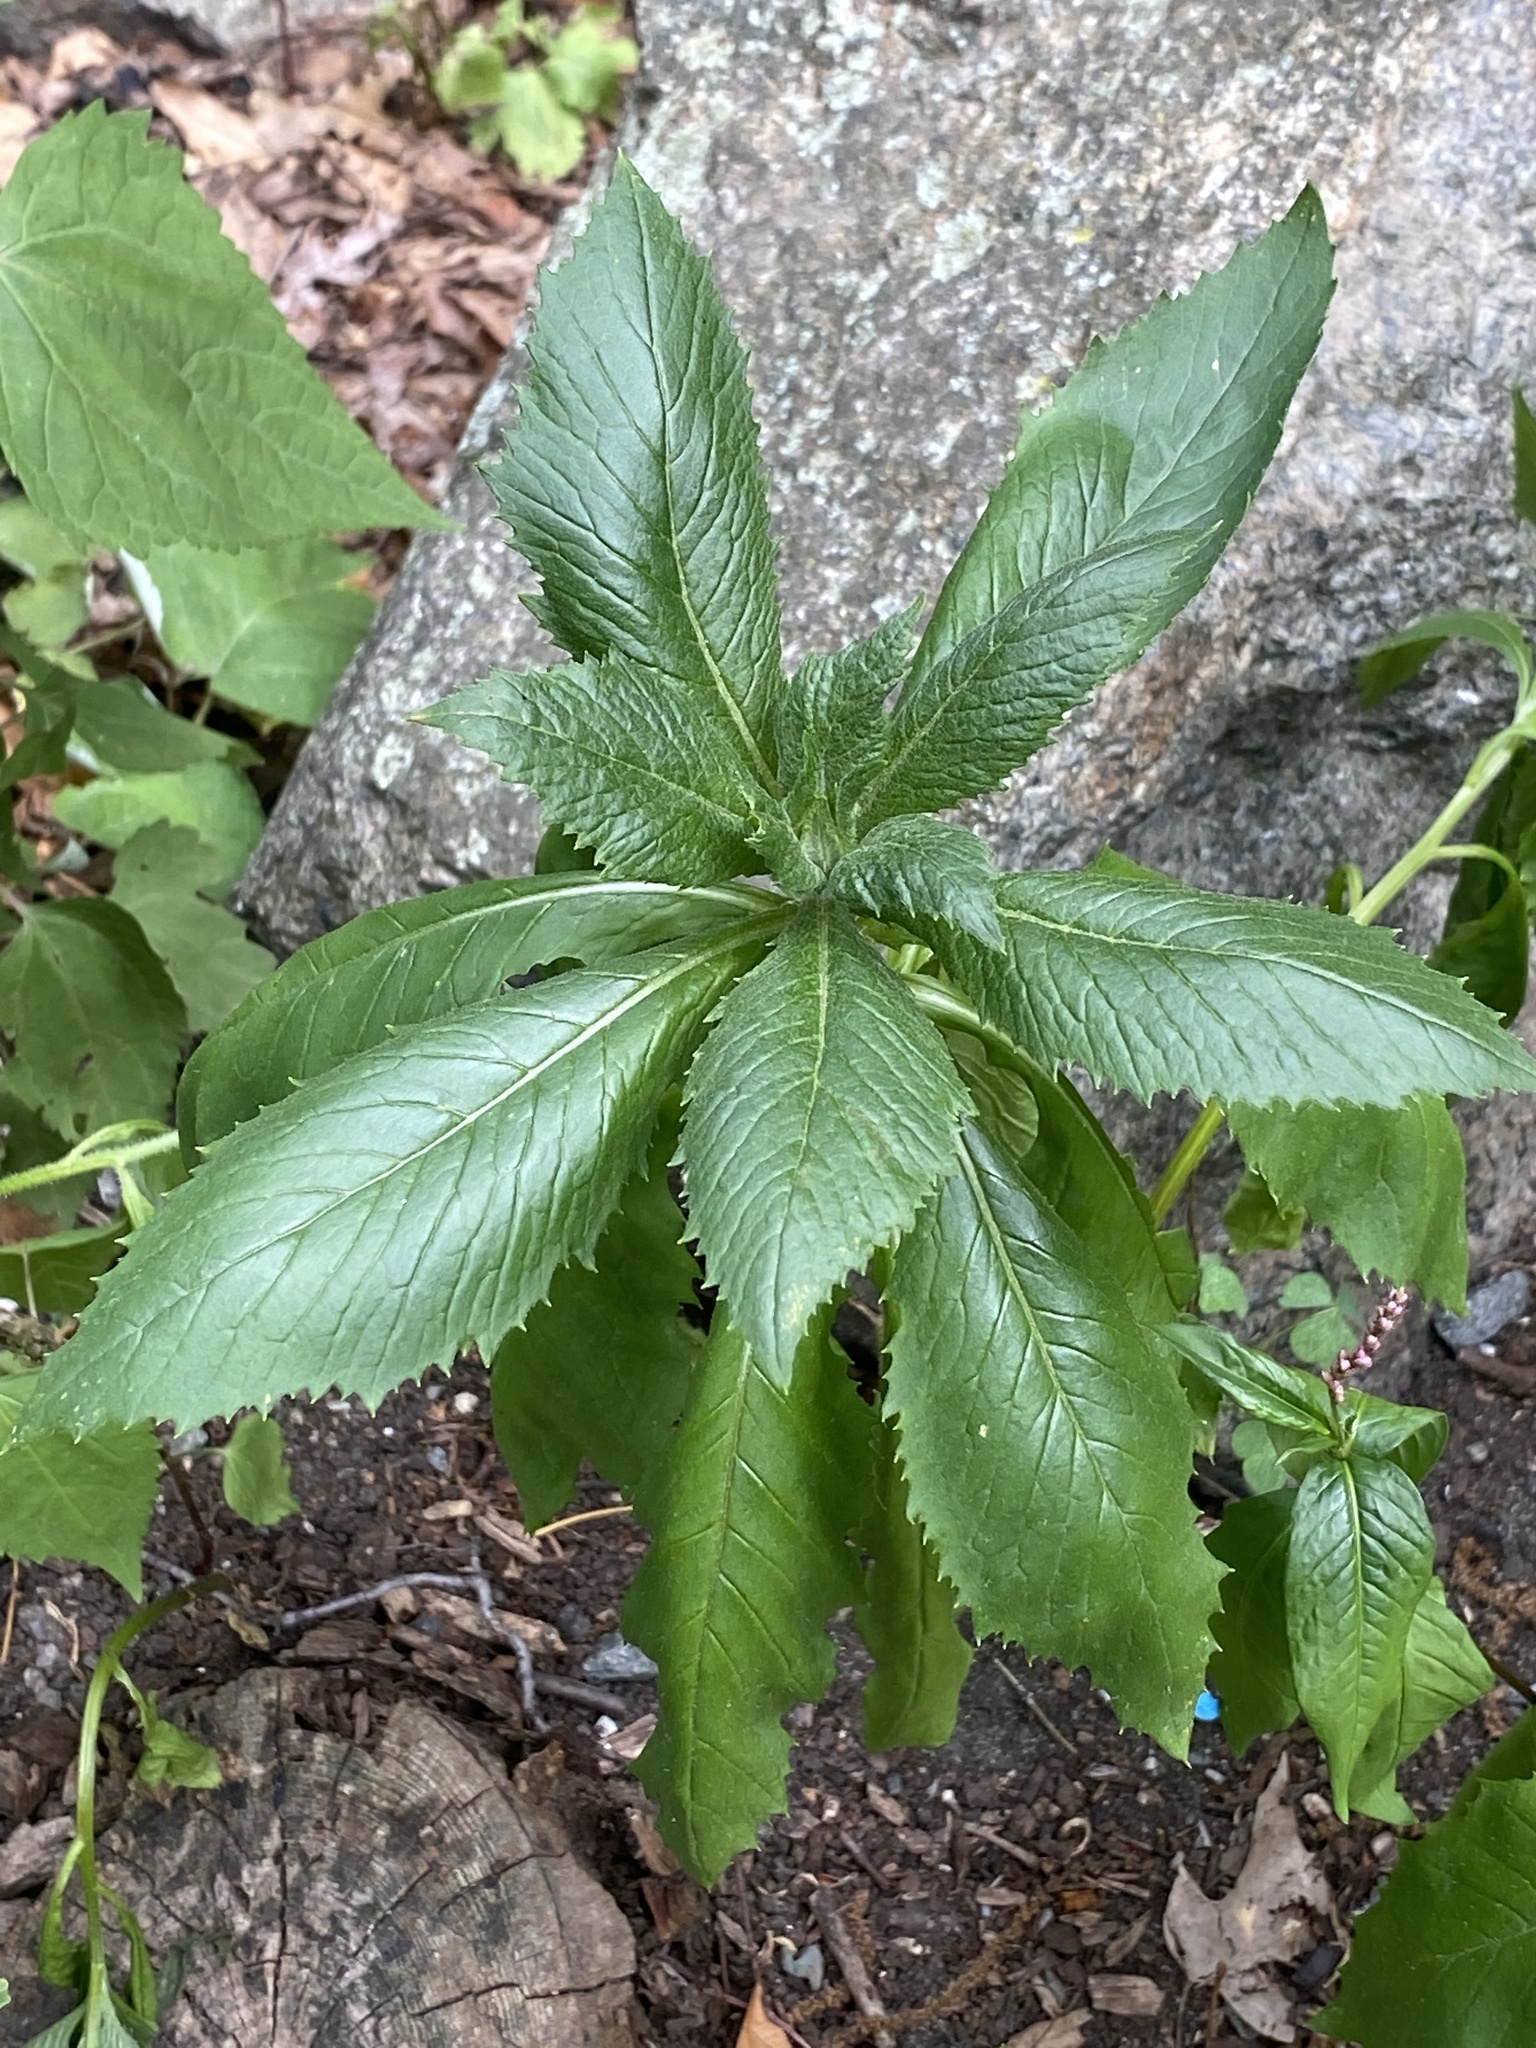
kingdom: Plantae
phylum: Tracheophyta
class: Magnoliopsida
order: Asterales
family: Asteraceae
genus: Erechtites
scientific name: Erechtites hieraciifolius
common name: American burnweed
